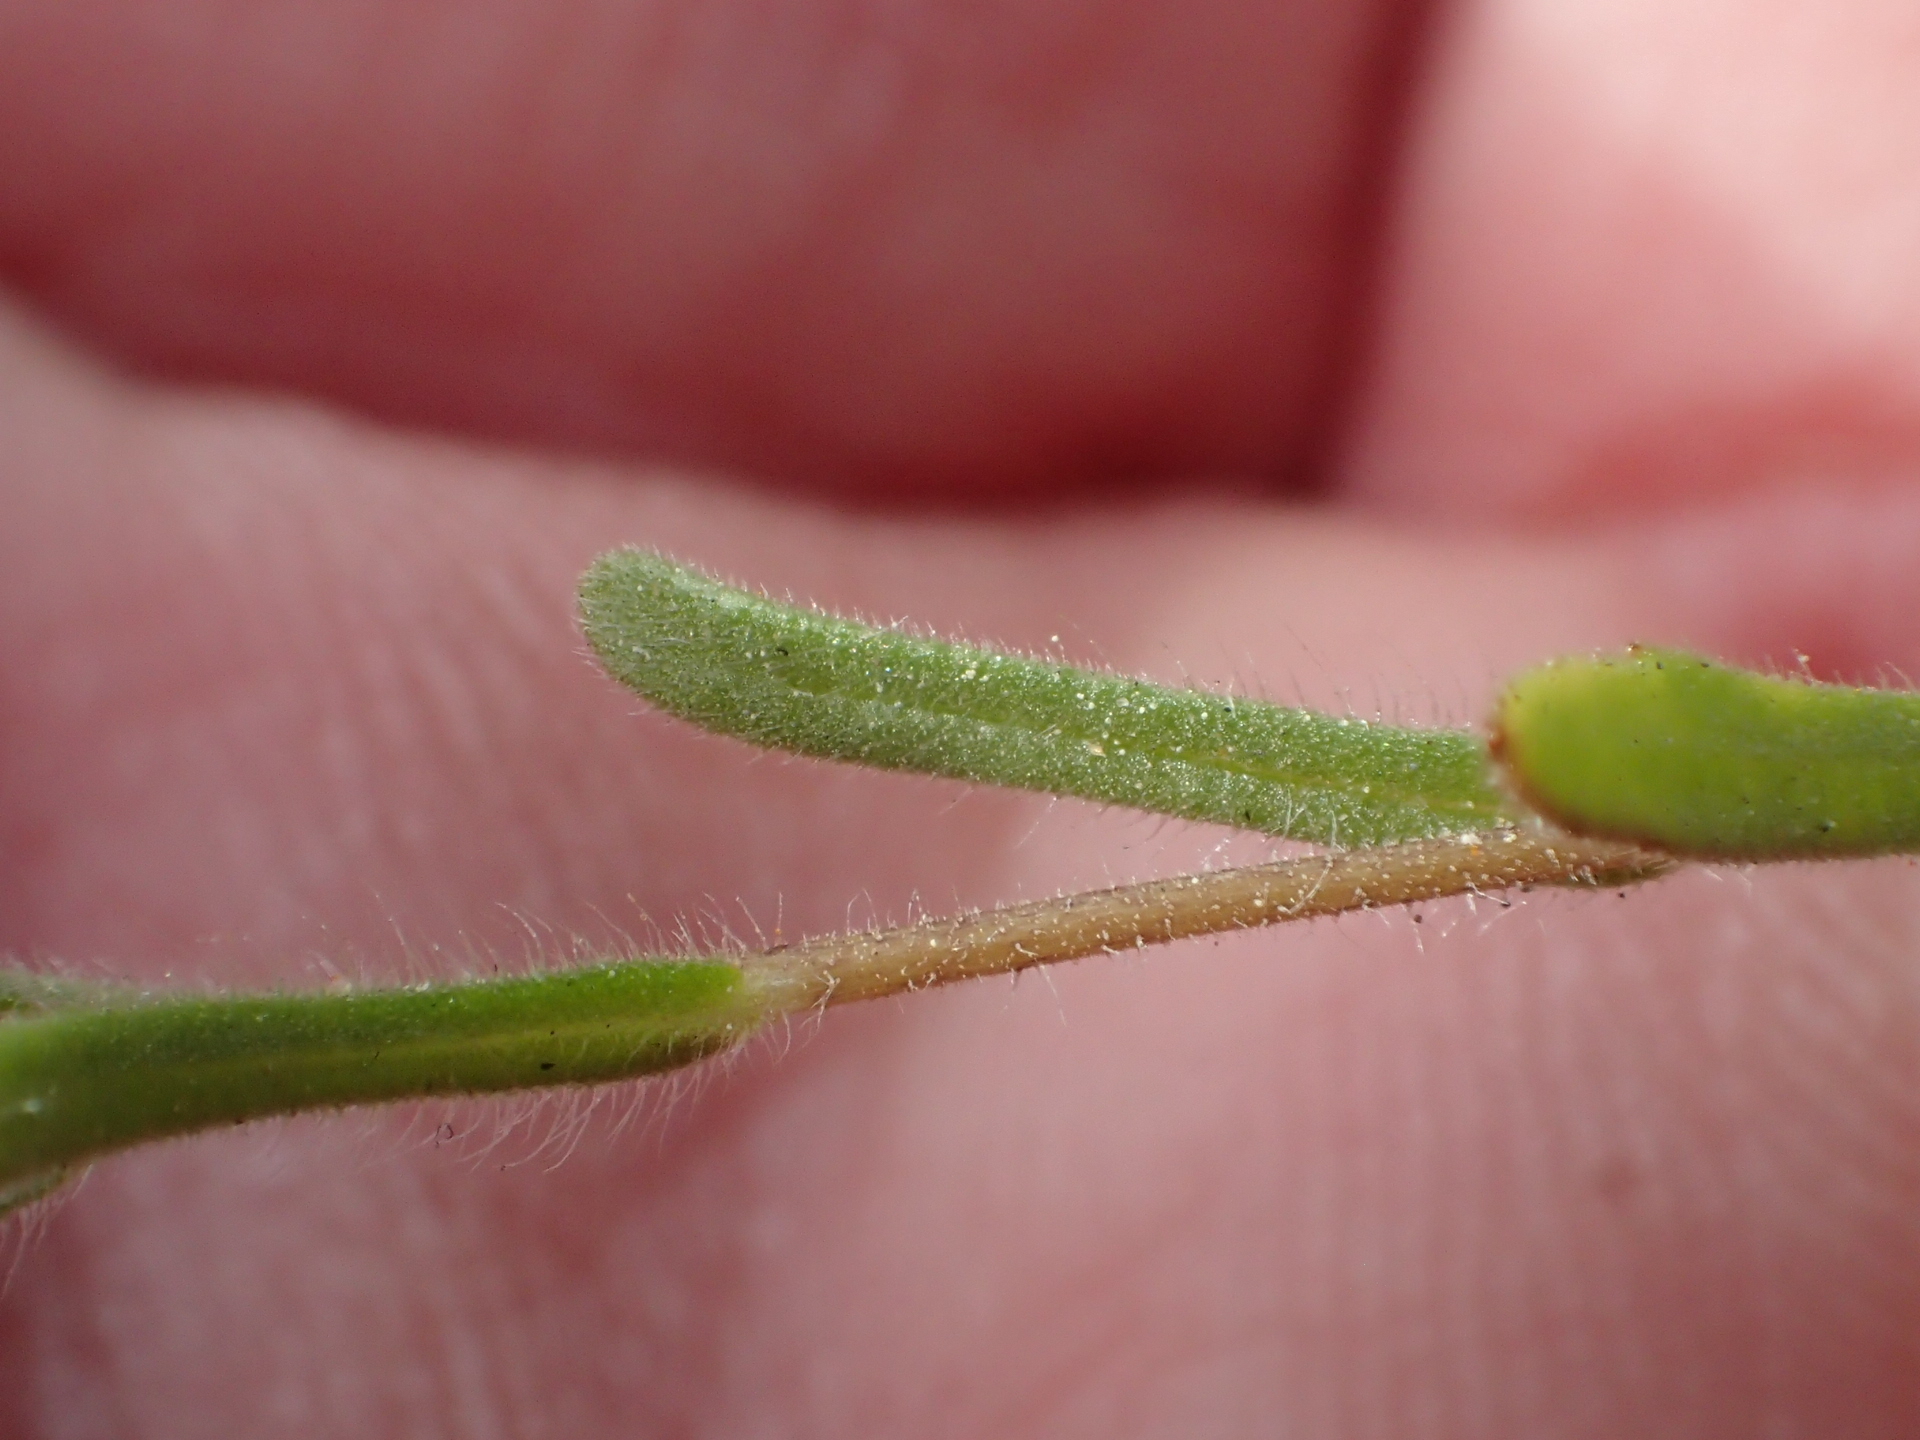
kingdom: Plantae
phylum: Tracheophyta
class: Magnoliopsida
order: Asterales
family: Asteraceae
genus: Layia
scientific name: Layia platyglossa
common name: Tidy-tips
